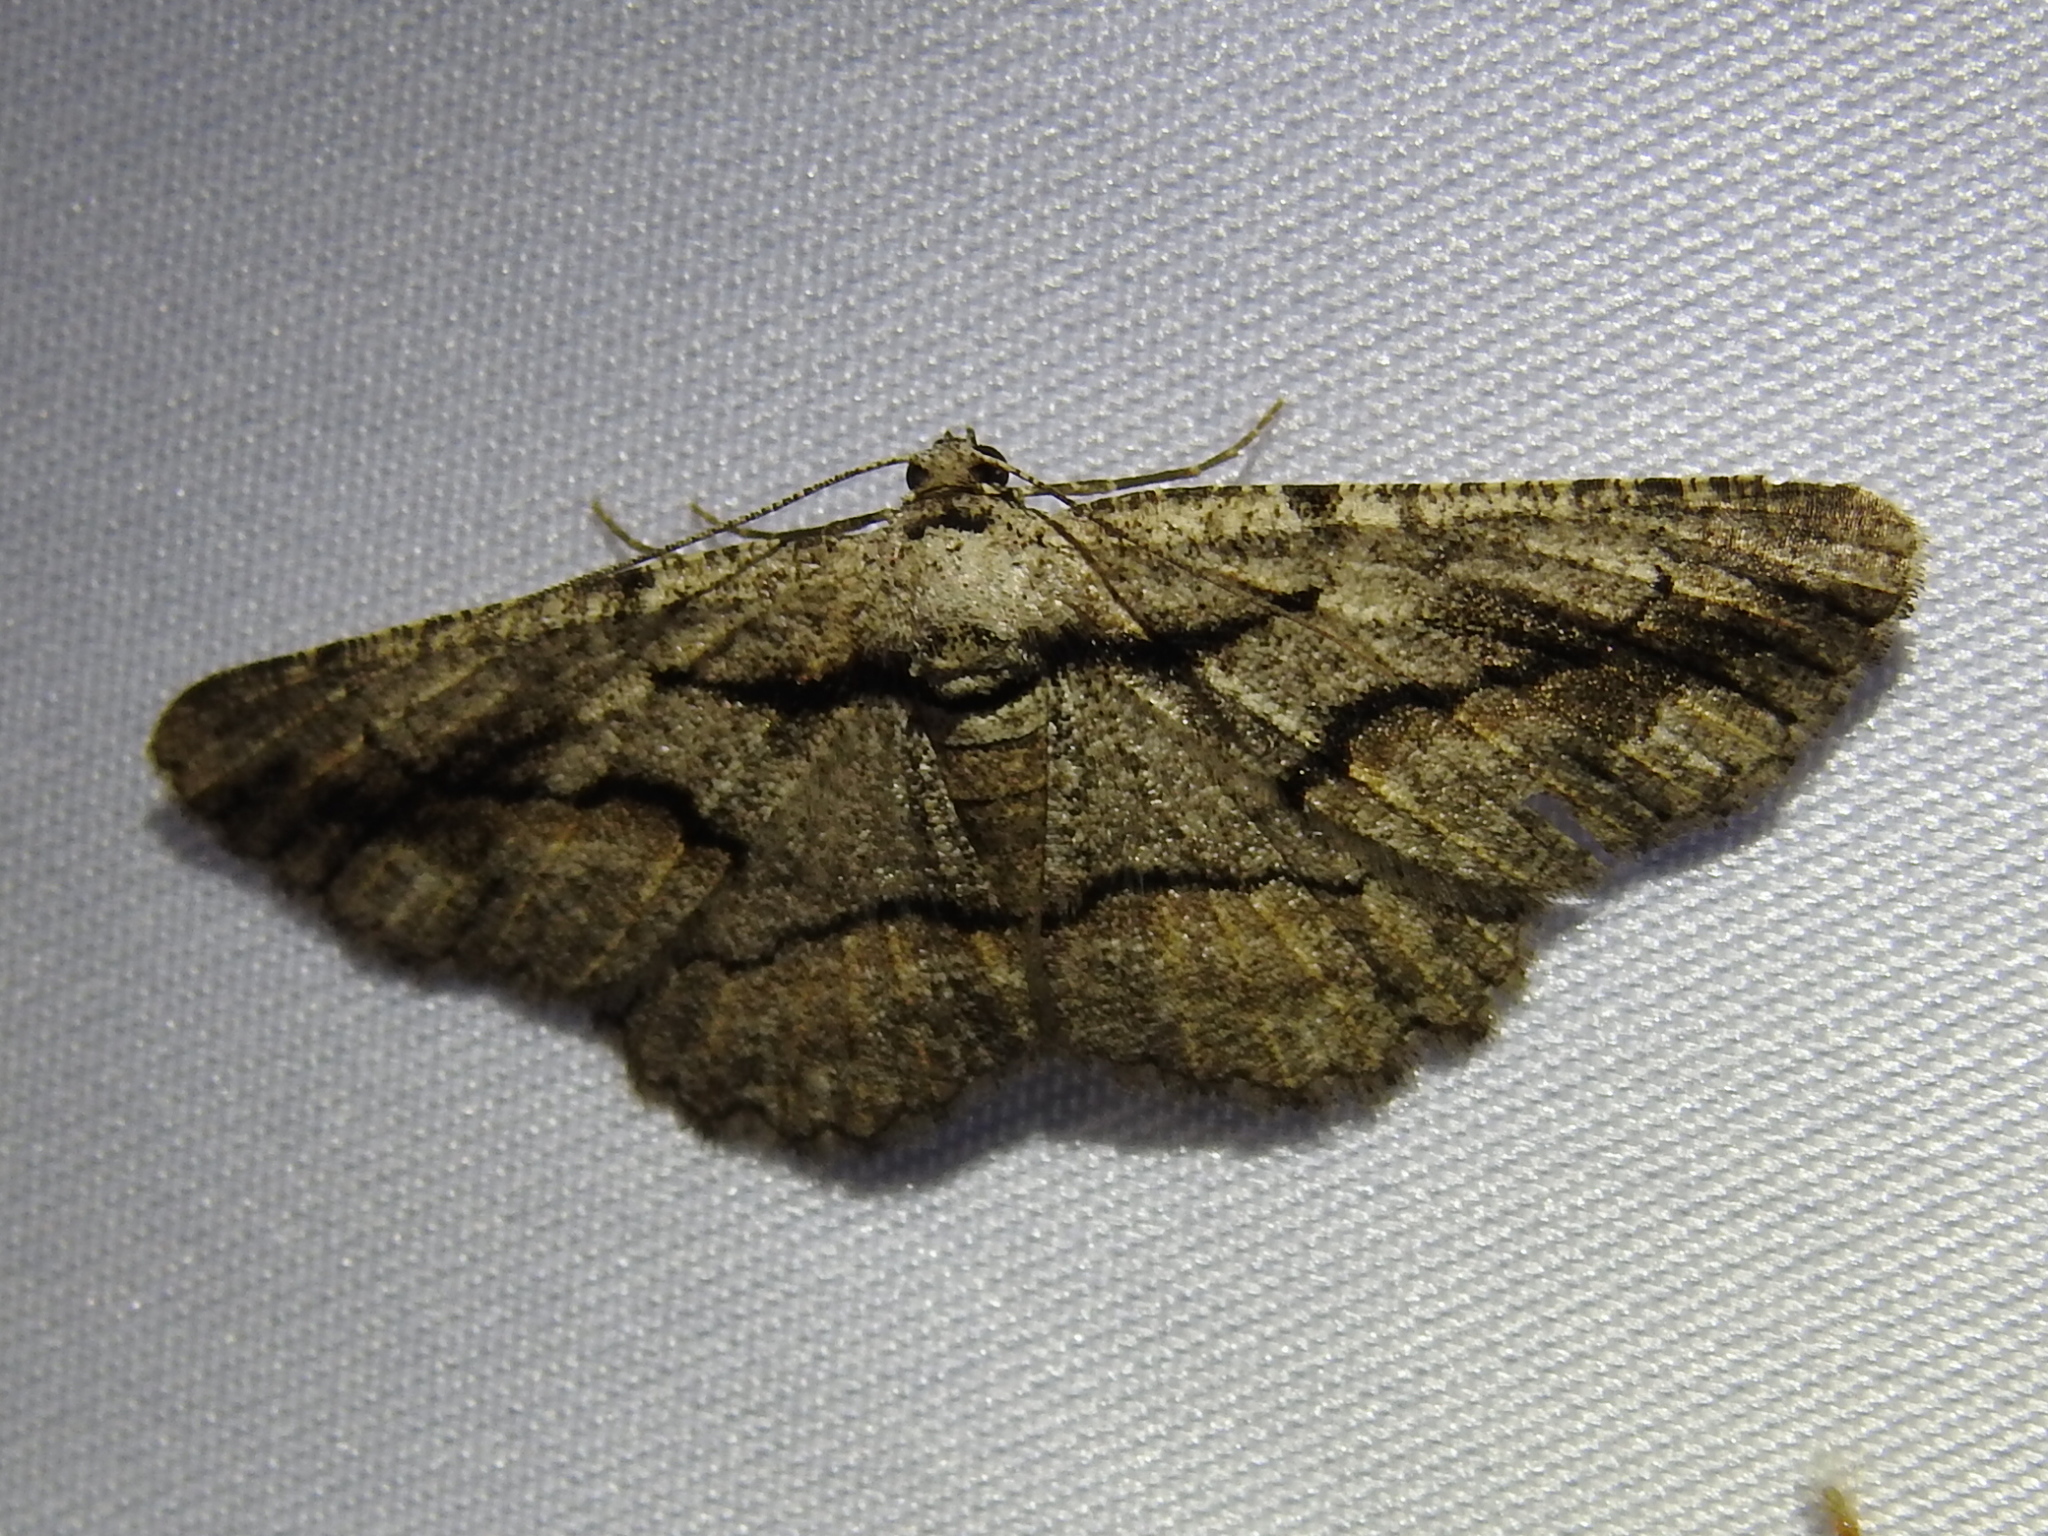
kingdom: Animalia
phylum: Arthropoda
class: Insecta
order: Lepidoptera
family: Geometridae
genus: Anavitrinella
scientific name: Anavitrinella pampinaria
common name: Common gray
